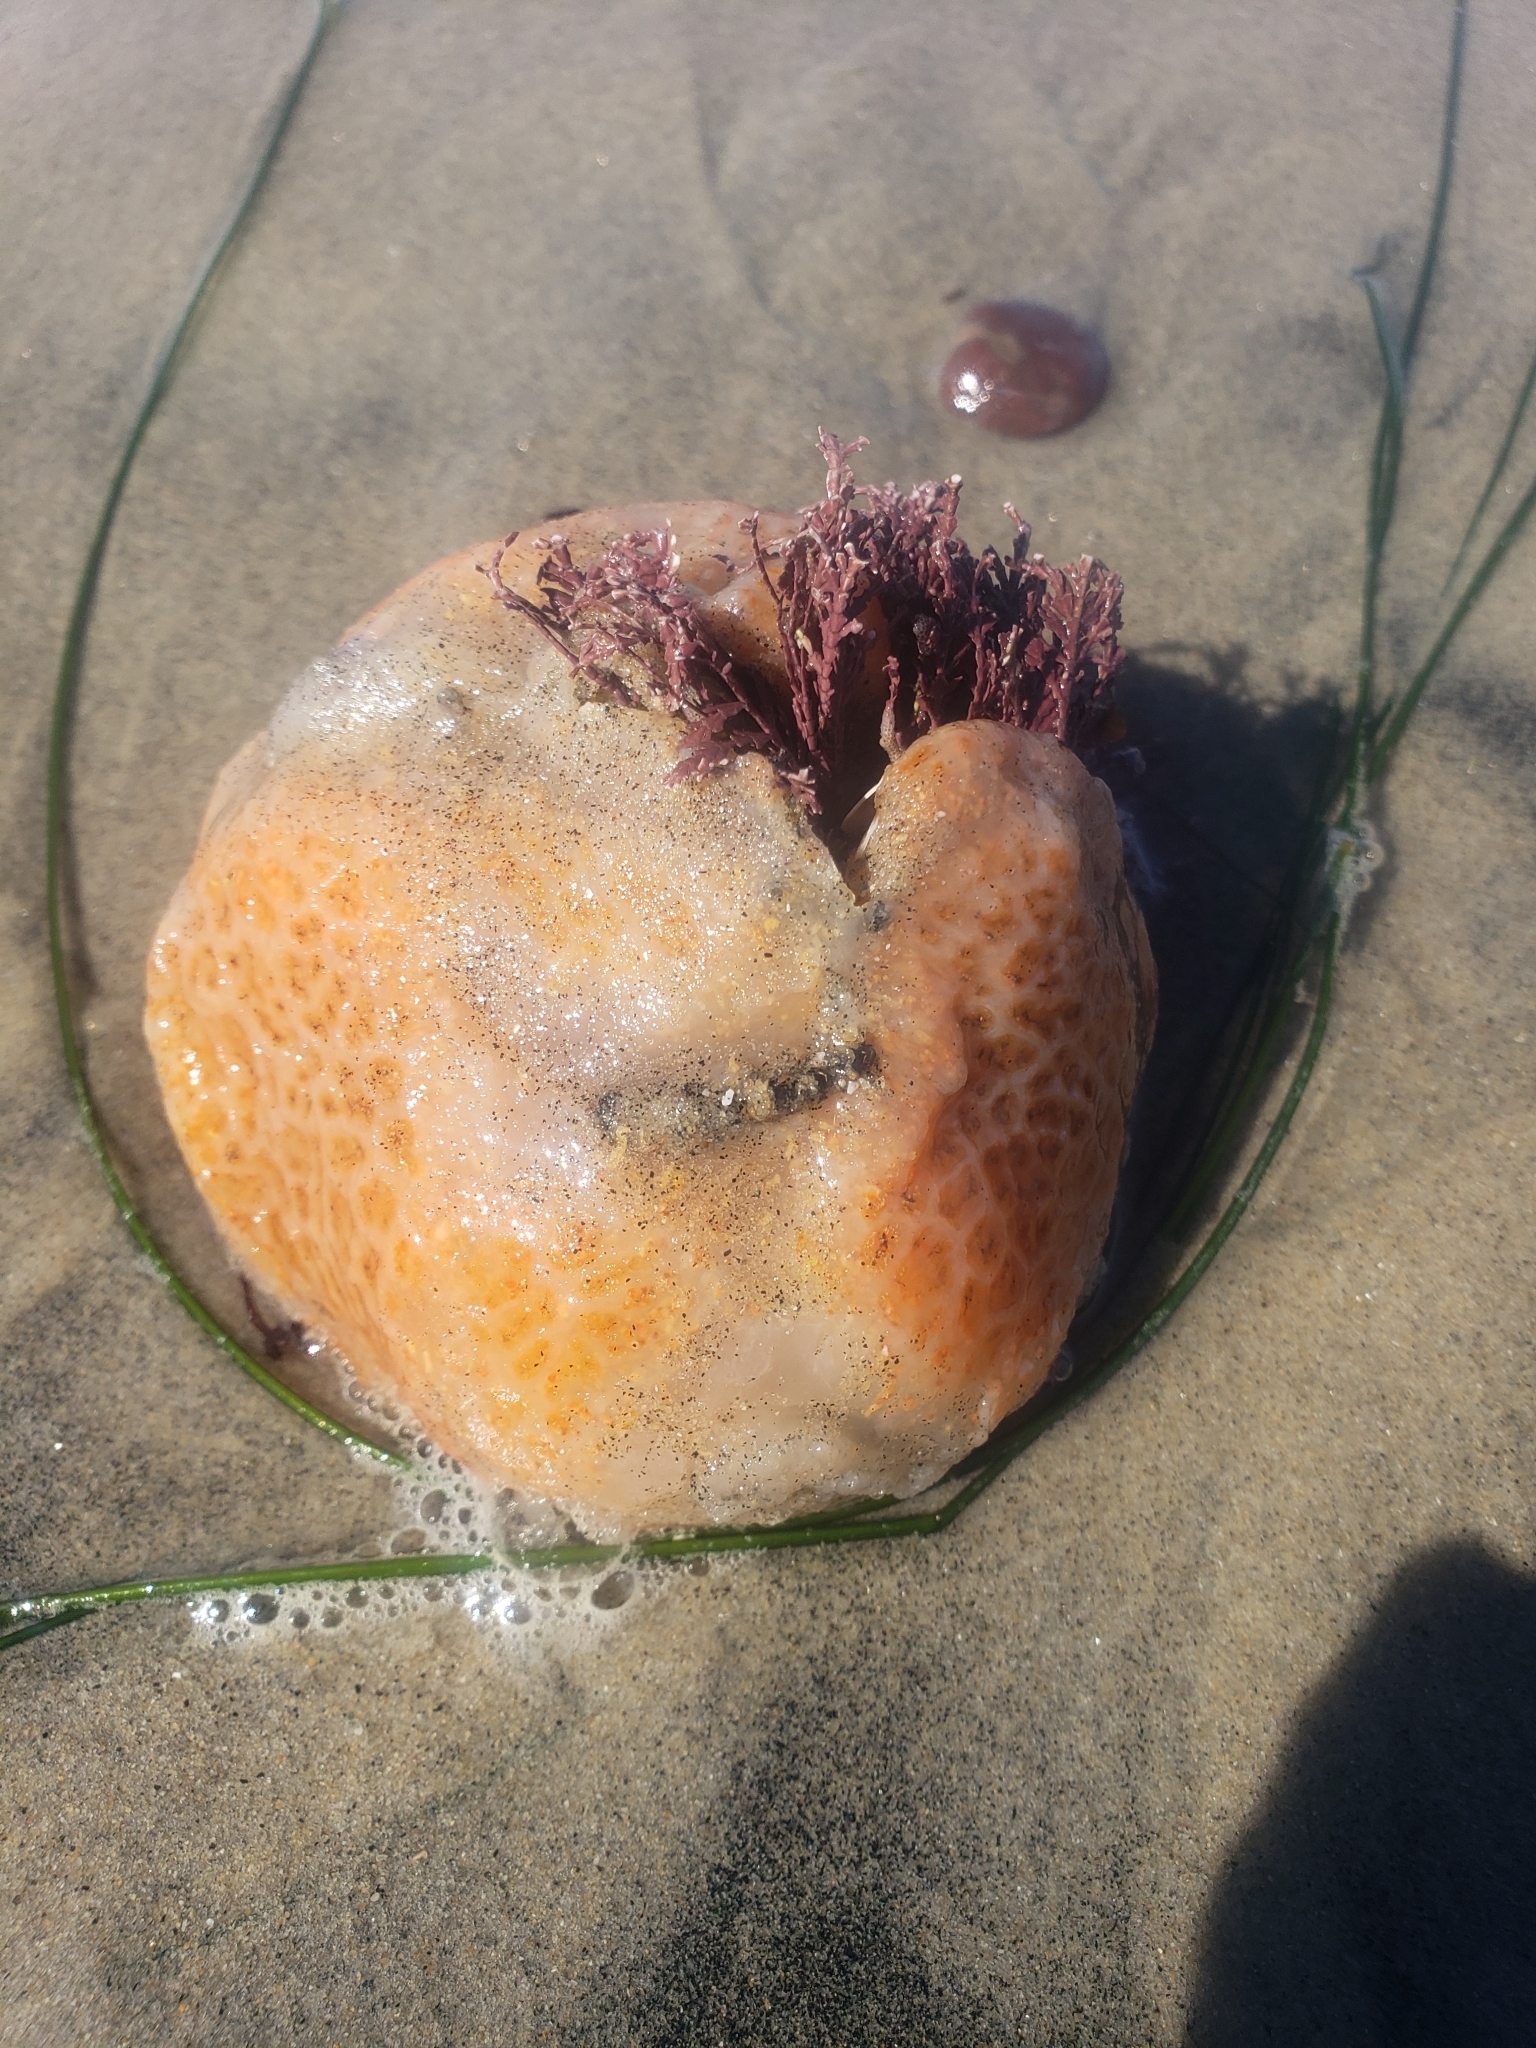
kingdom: Animalia
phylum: Chordata
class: Ascidiacea
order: Aplousobranchia
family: Polyclinidae
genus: Aplidium
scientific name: Aplidium californicum
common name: Sea pork
